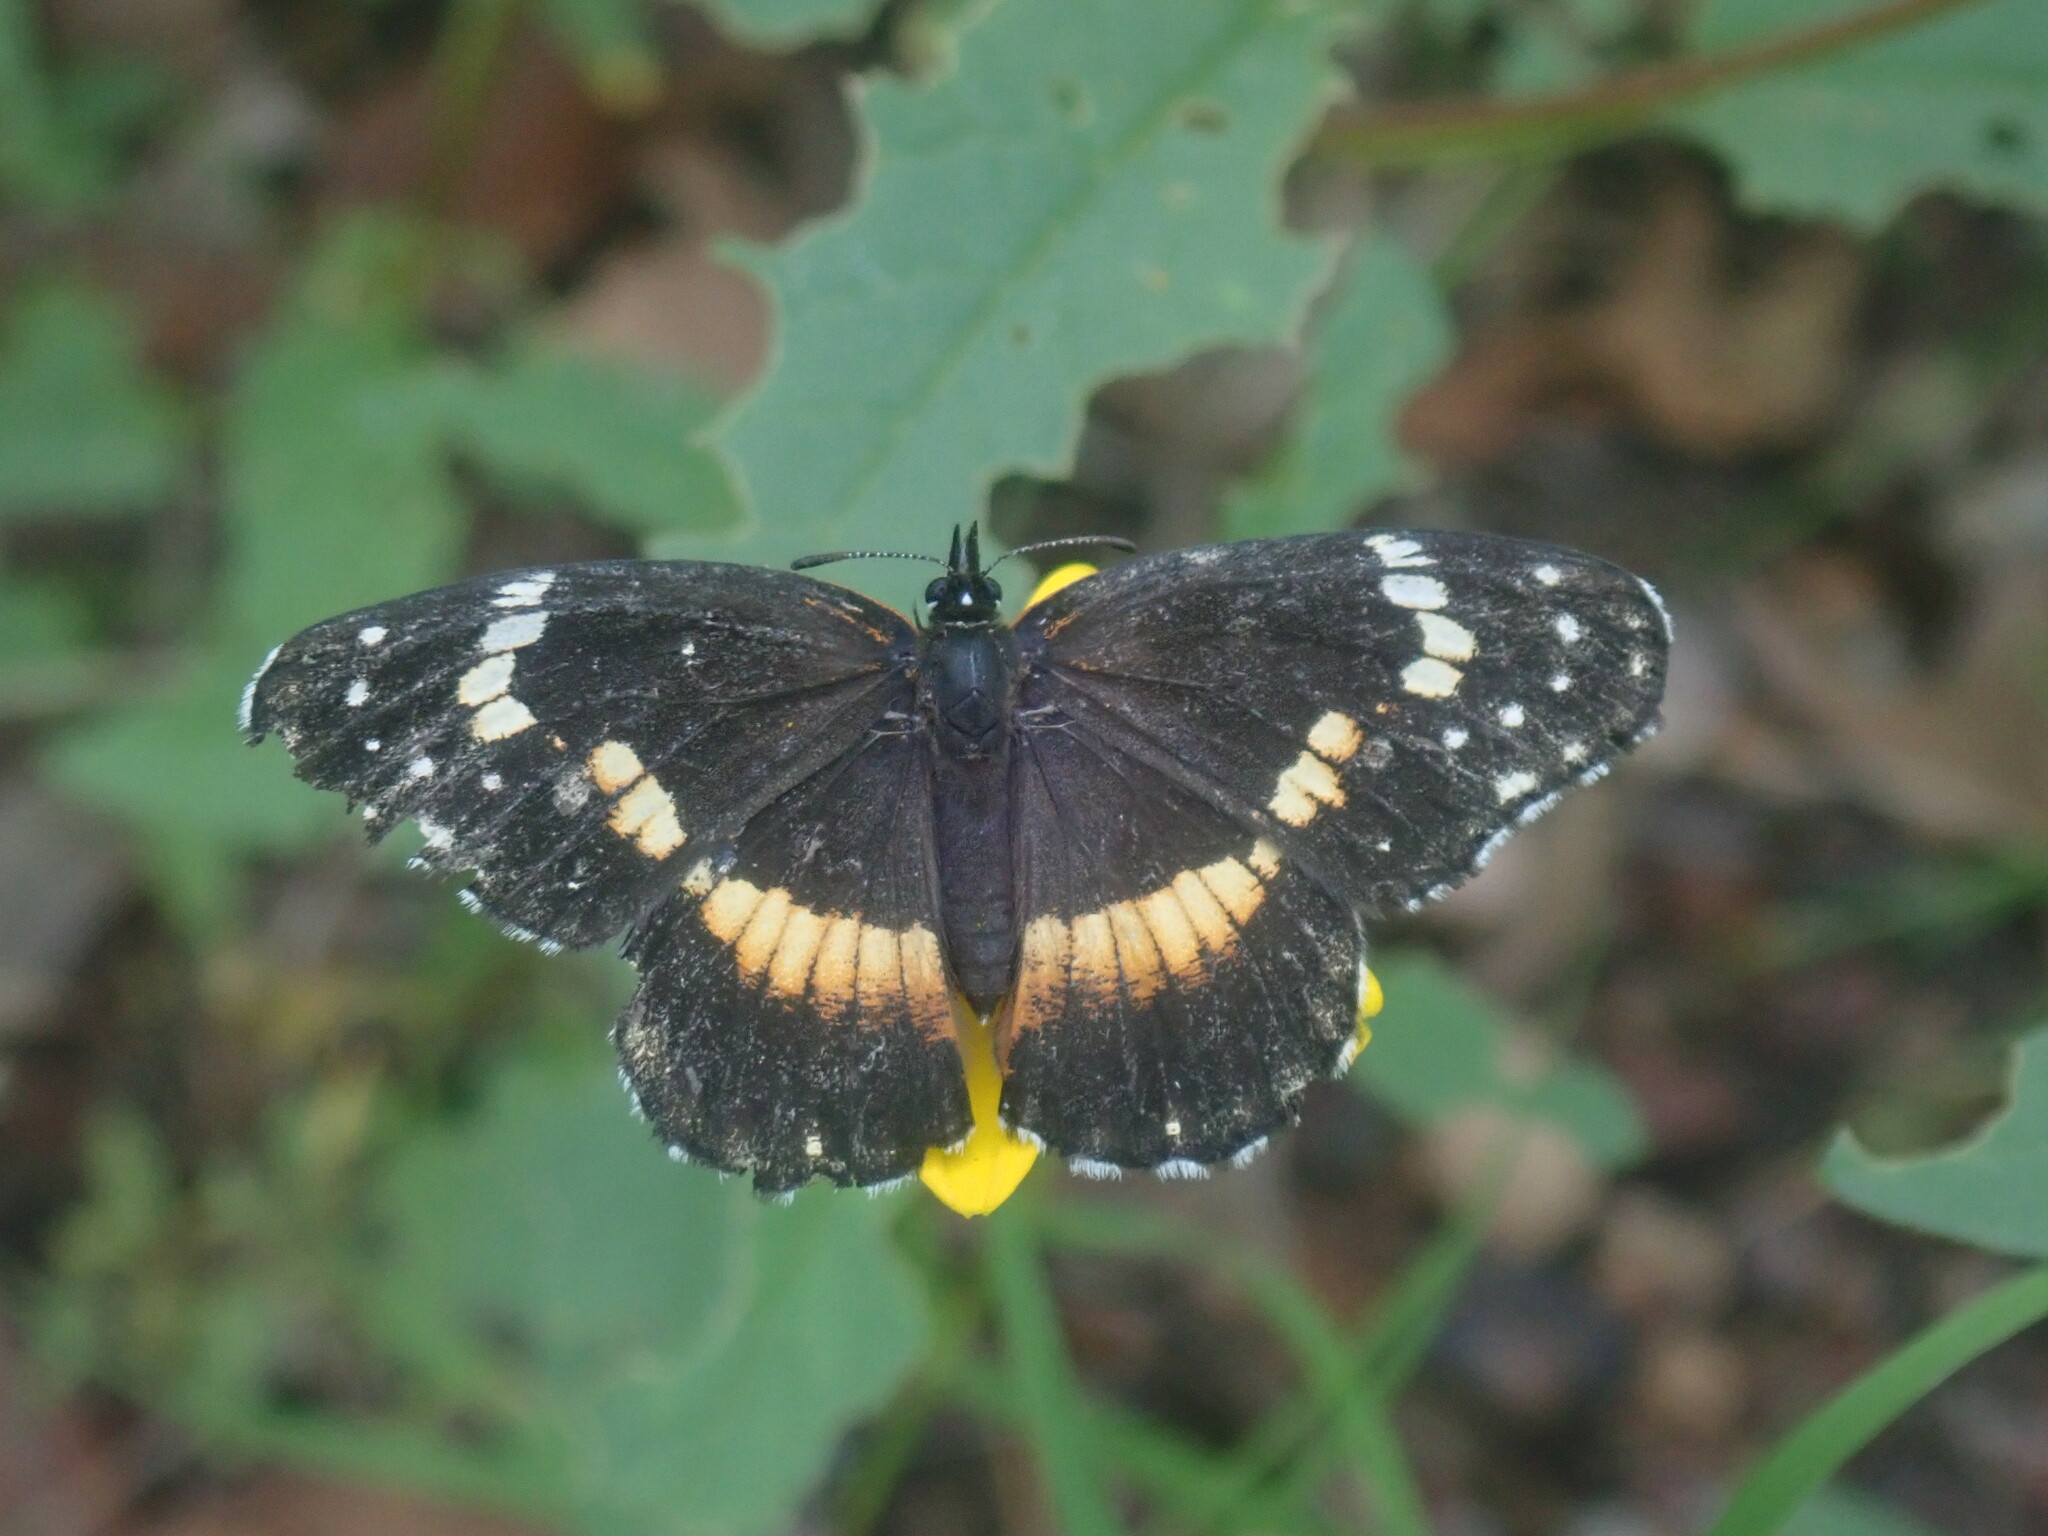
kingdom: Animalia
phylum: Arthropoda
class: Insecta
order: Lepidoptera
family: Nymphalidae
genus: Chlosyne
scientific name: Chlosyne lacinia
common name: Bordered patch
